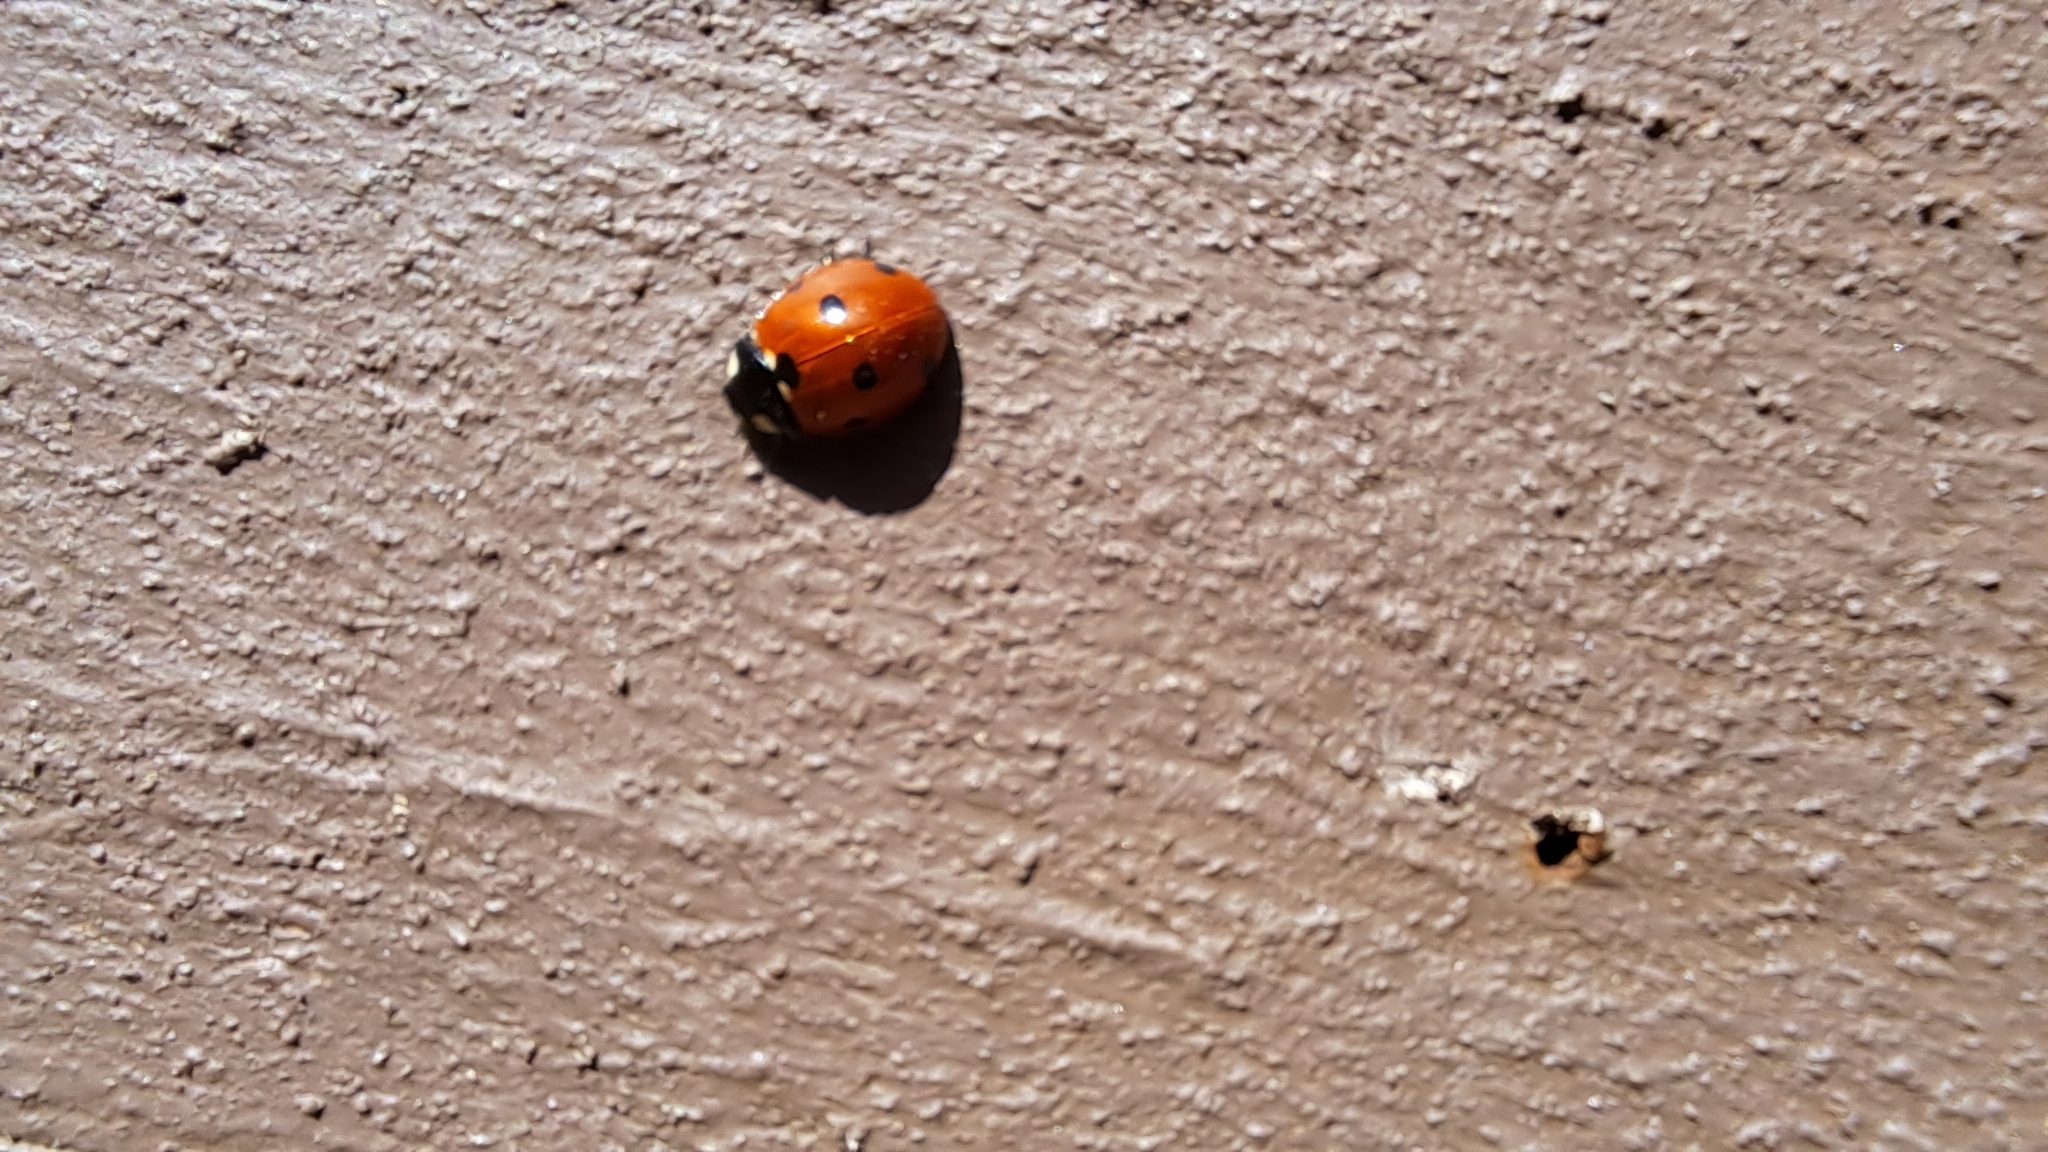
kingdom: Animalia
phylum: Arthropoda
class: Insecta
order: Coleoptera
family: Coccinellidae
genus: Coccinella
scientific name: Coccinella septempunctata
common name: Sevenspotted lady beetle
